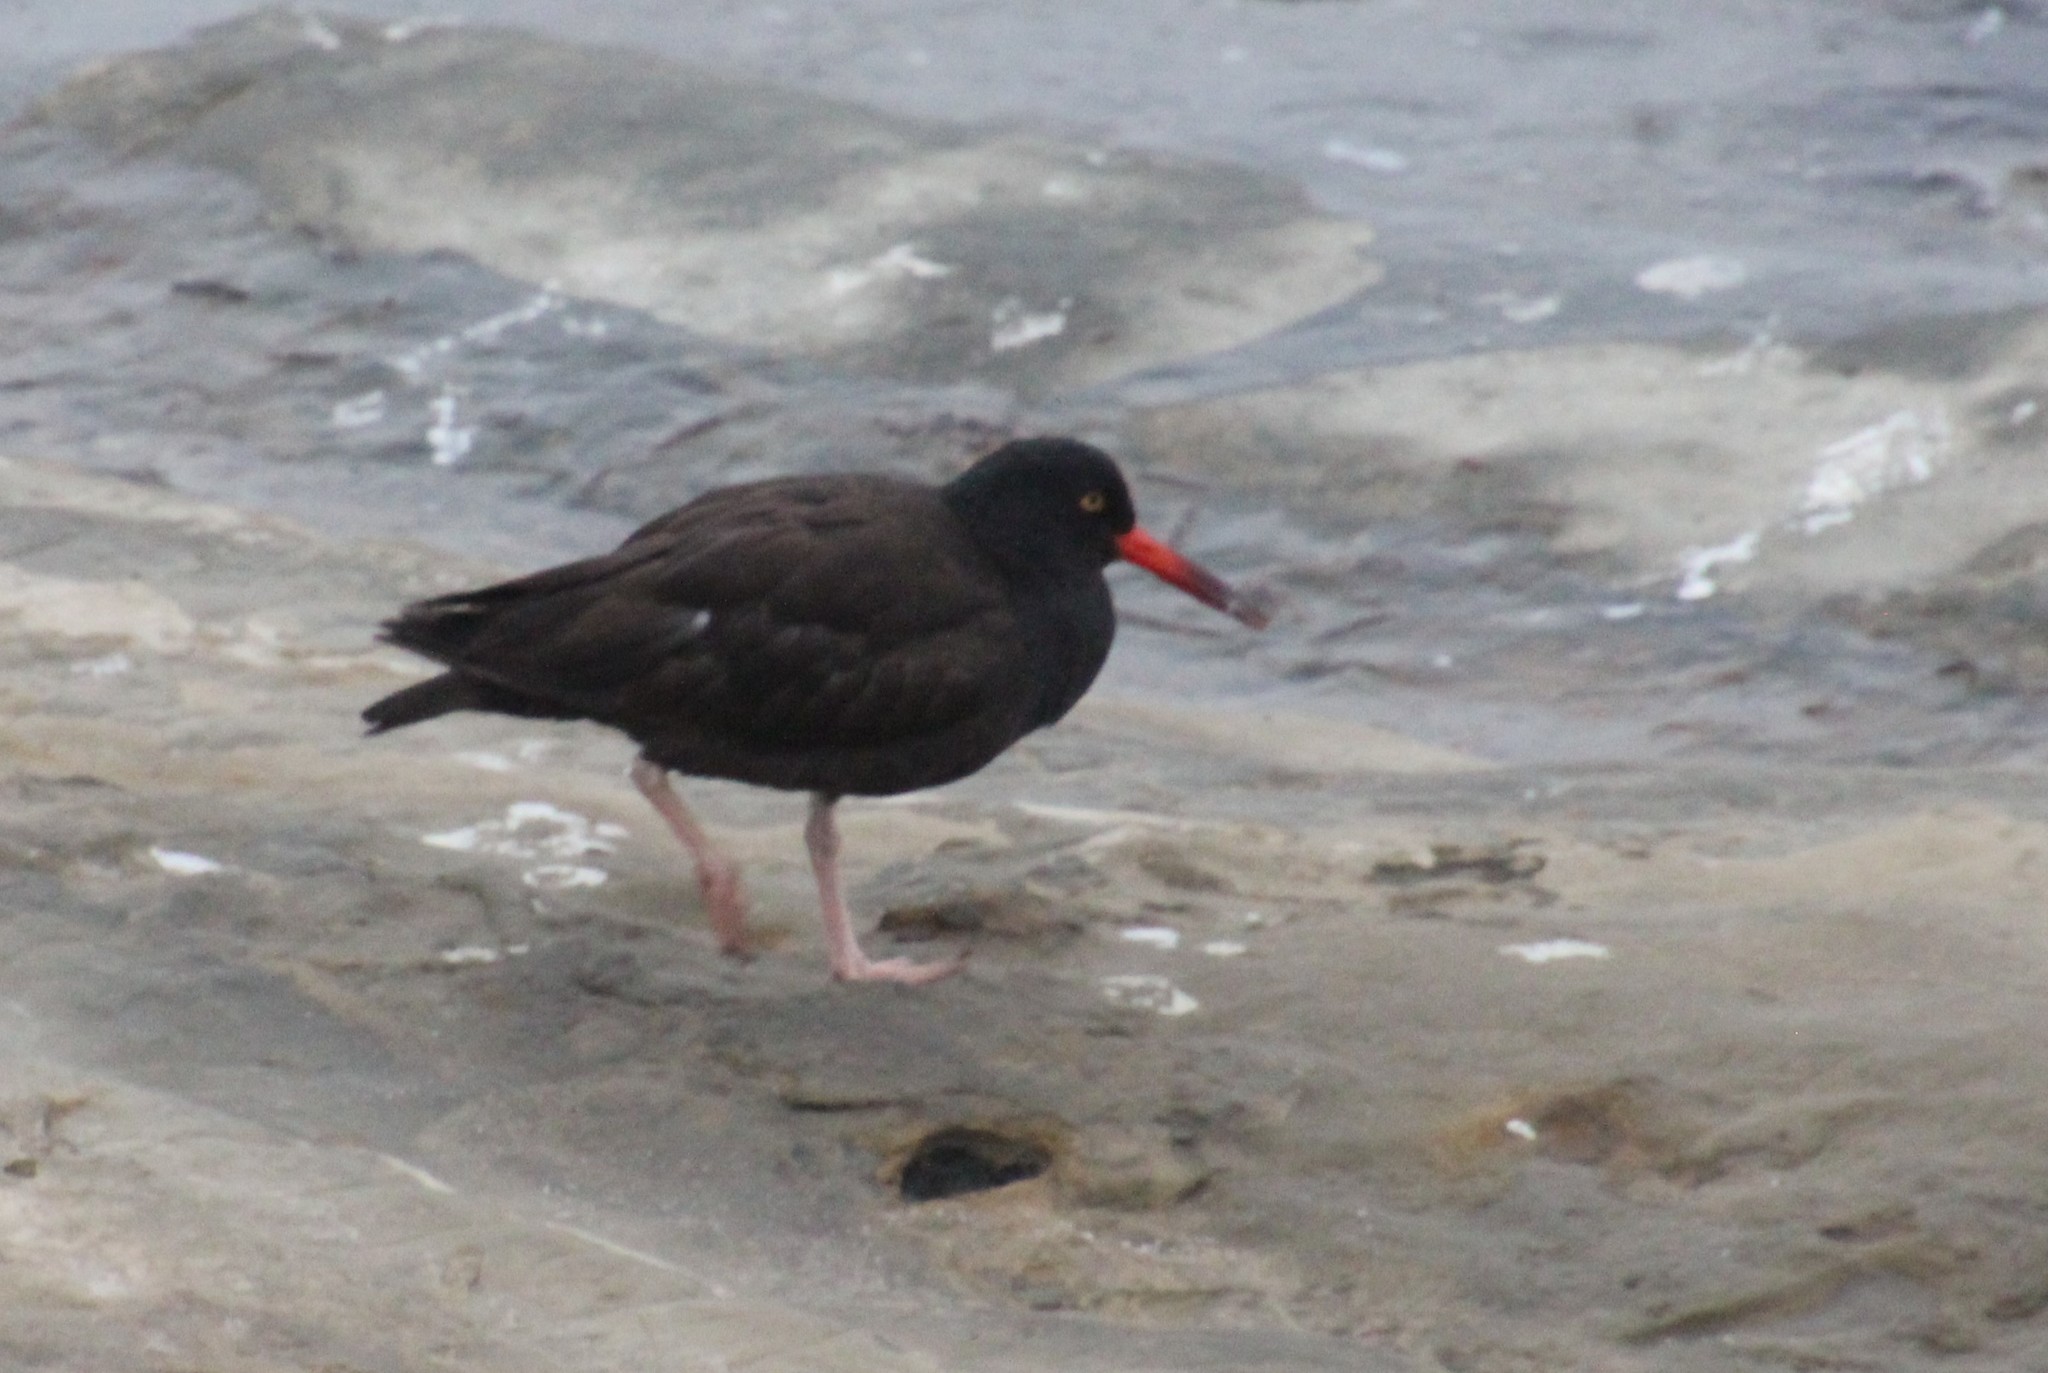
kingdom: Animalia
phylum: Chordata
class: Aves
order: Charadriiformes
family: Haematopodidae
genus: Haematopus
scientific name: Haematopus bachmani
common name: Black oystercatcher
